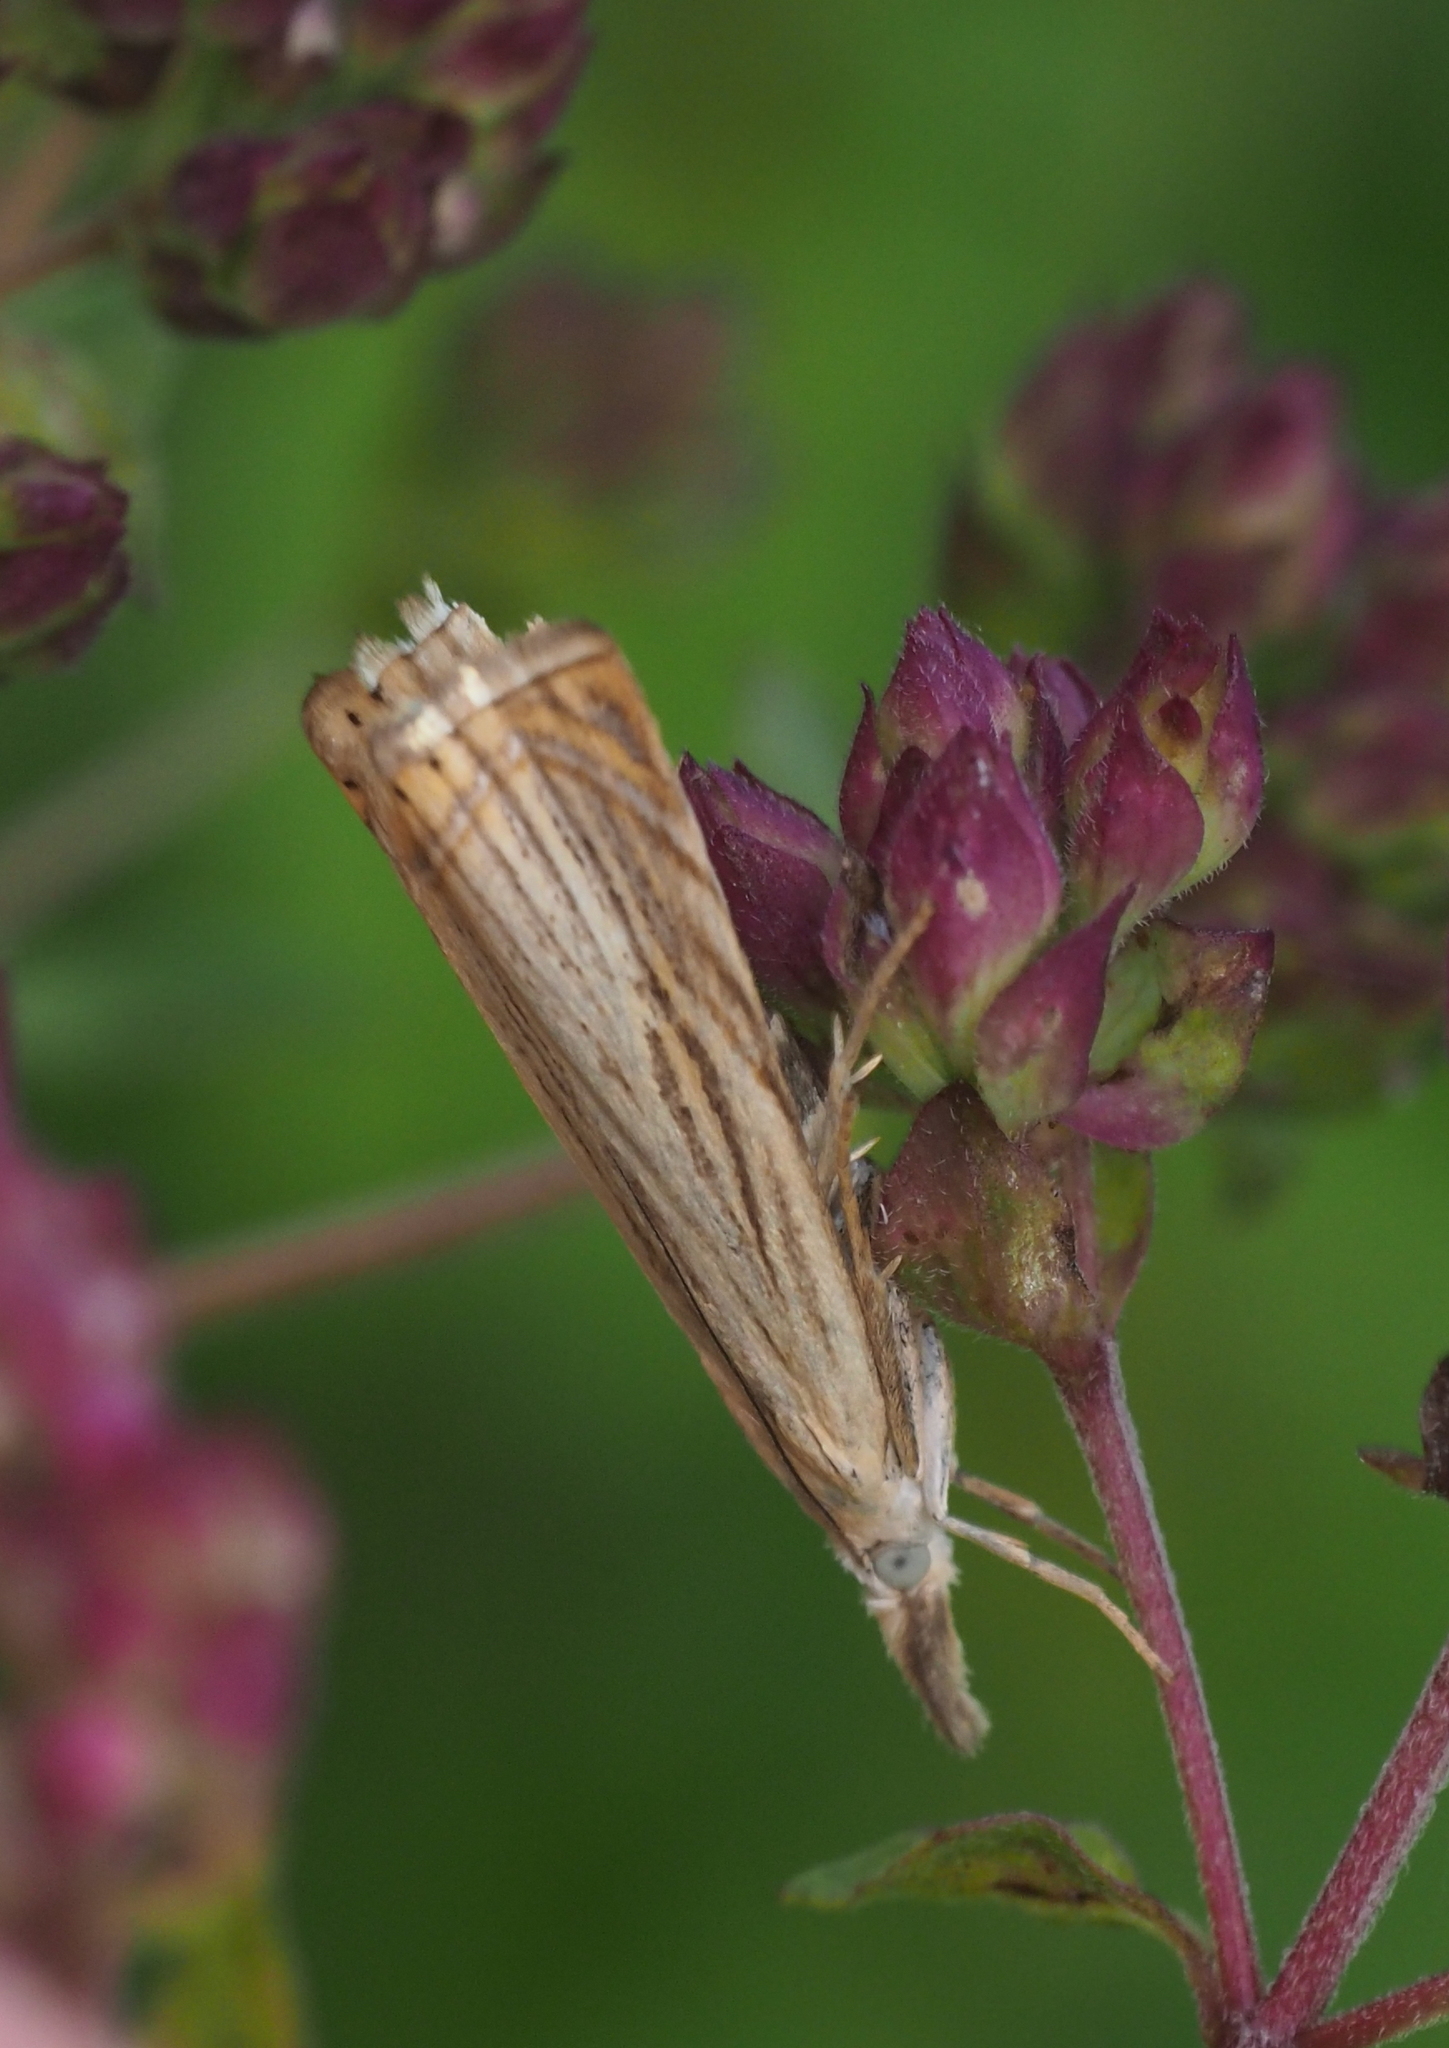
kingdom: Animalia
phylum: Arthropoda
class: Insecta
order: Lepidoptera
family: Crambidae
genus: Chrysoteuchia
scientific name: Chrysoteuchia culmella
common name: Garden grass-veneer
